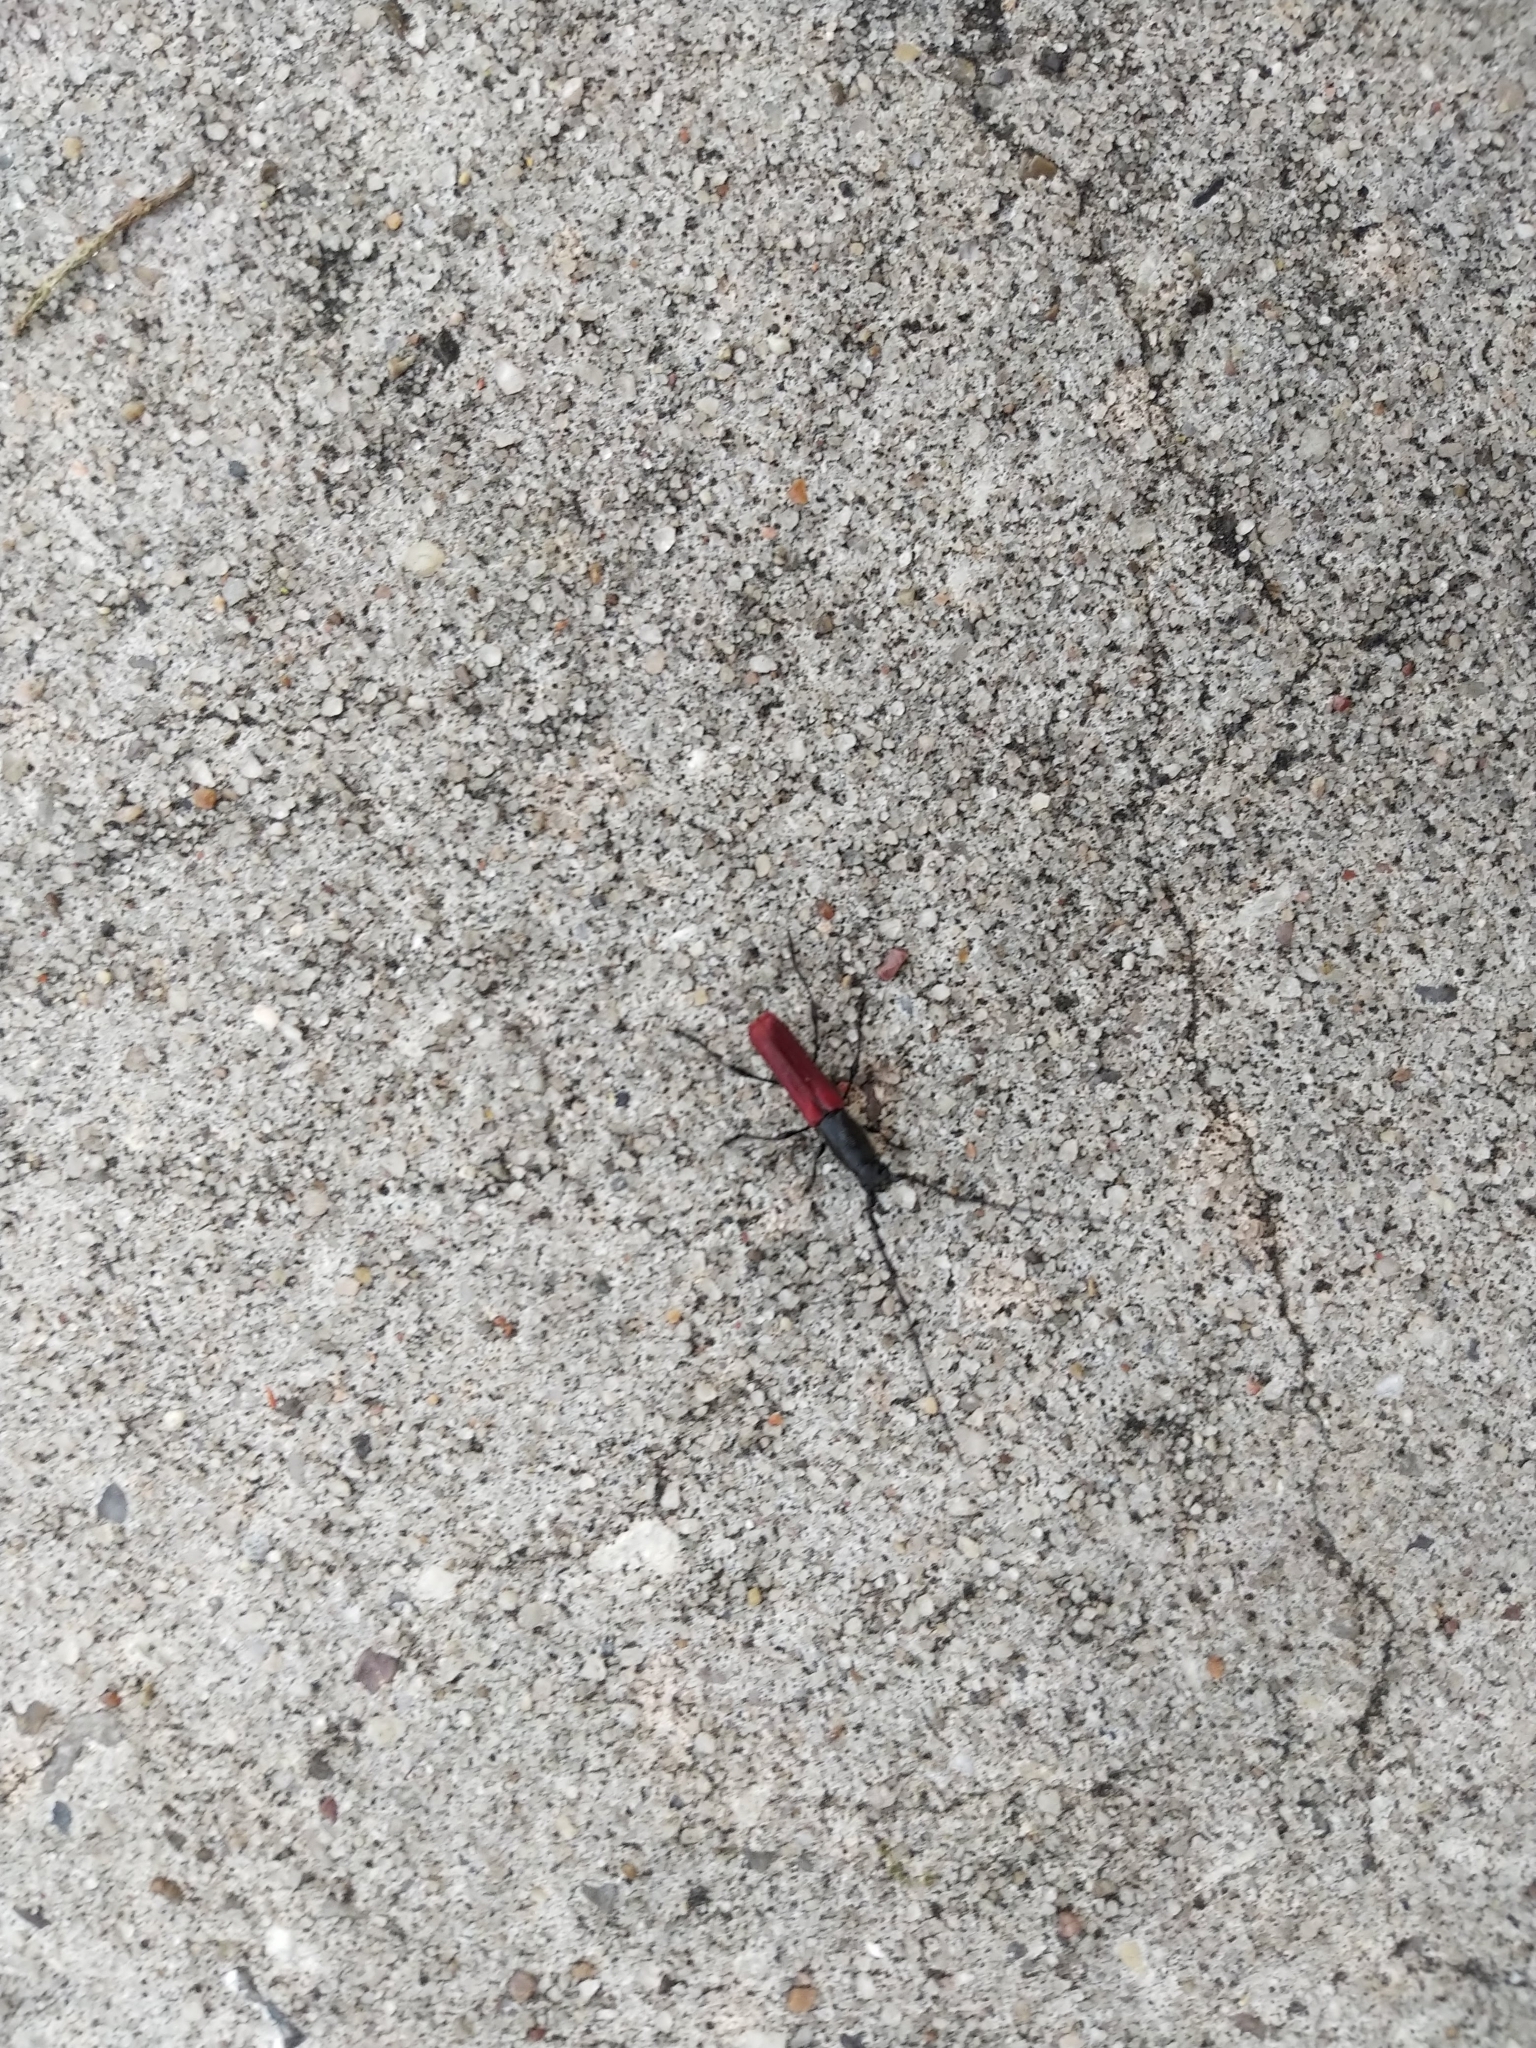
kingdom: Animalia
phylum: Arthropoda
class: Insecta
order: Coleoptera
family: Cerambycidae
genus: Ancylocera
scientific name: Ancylocera bicolor
